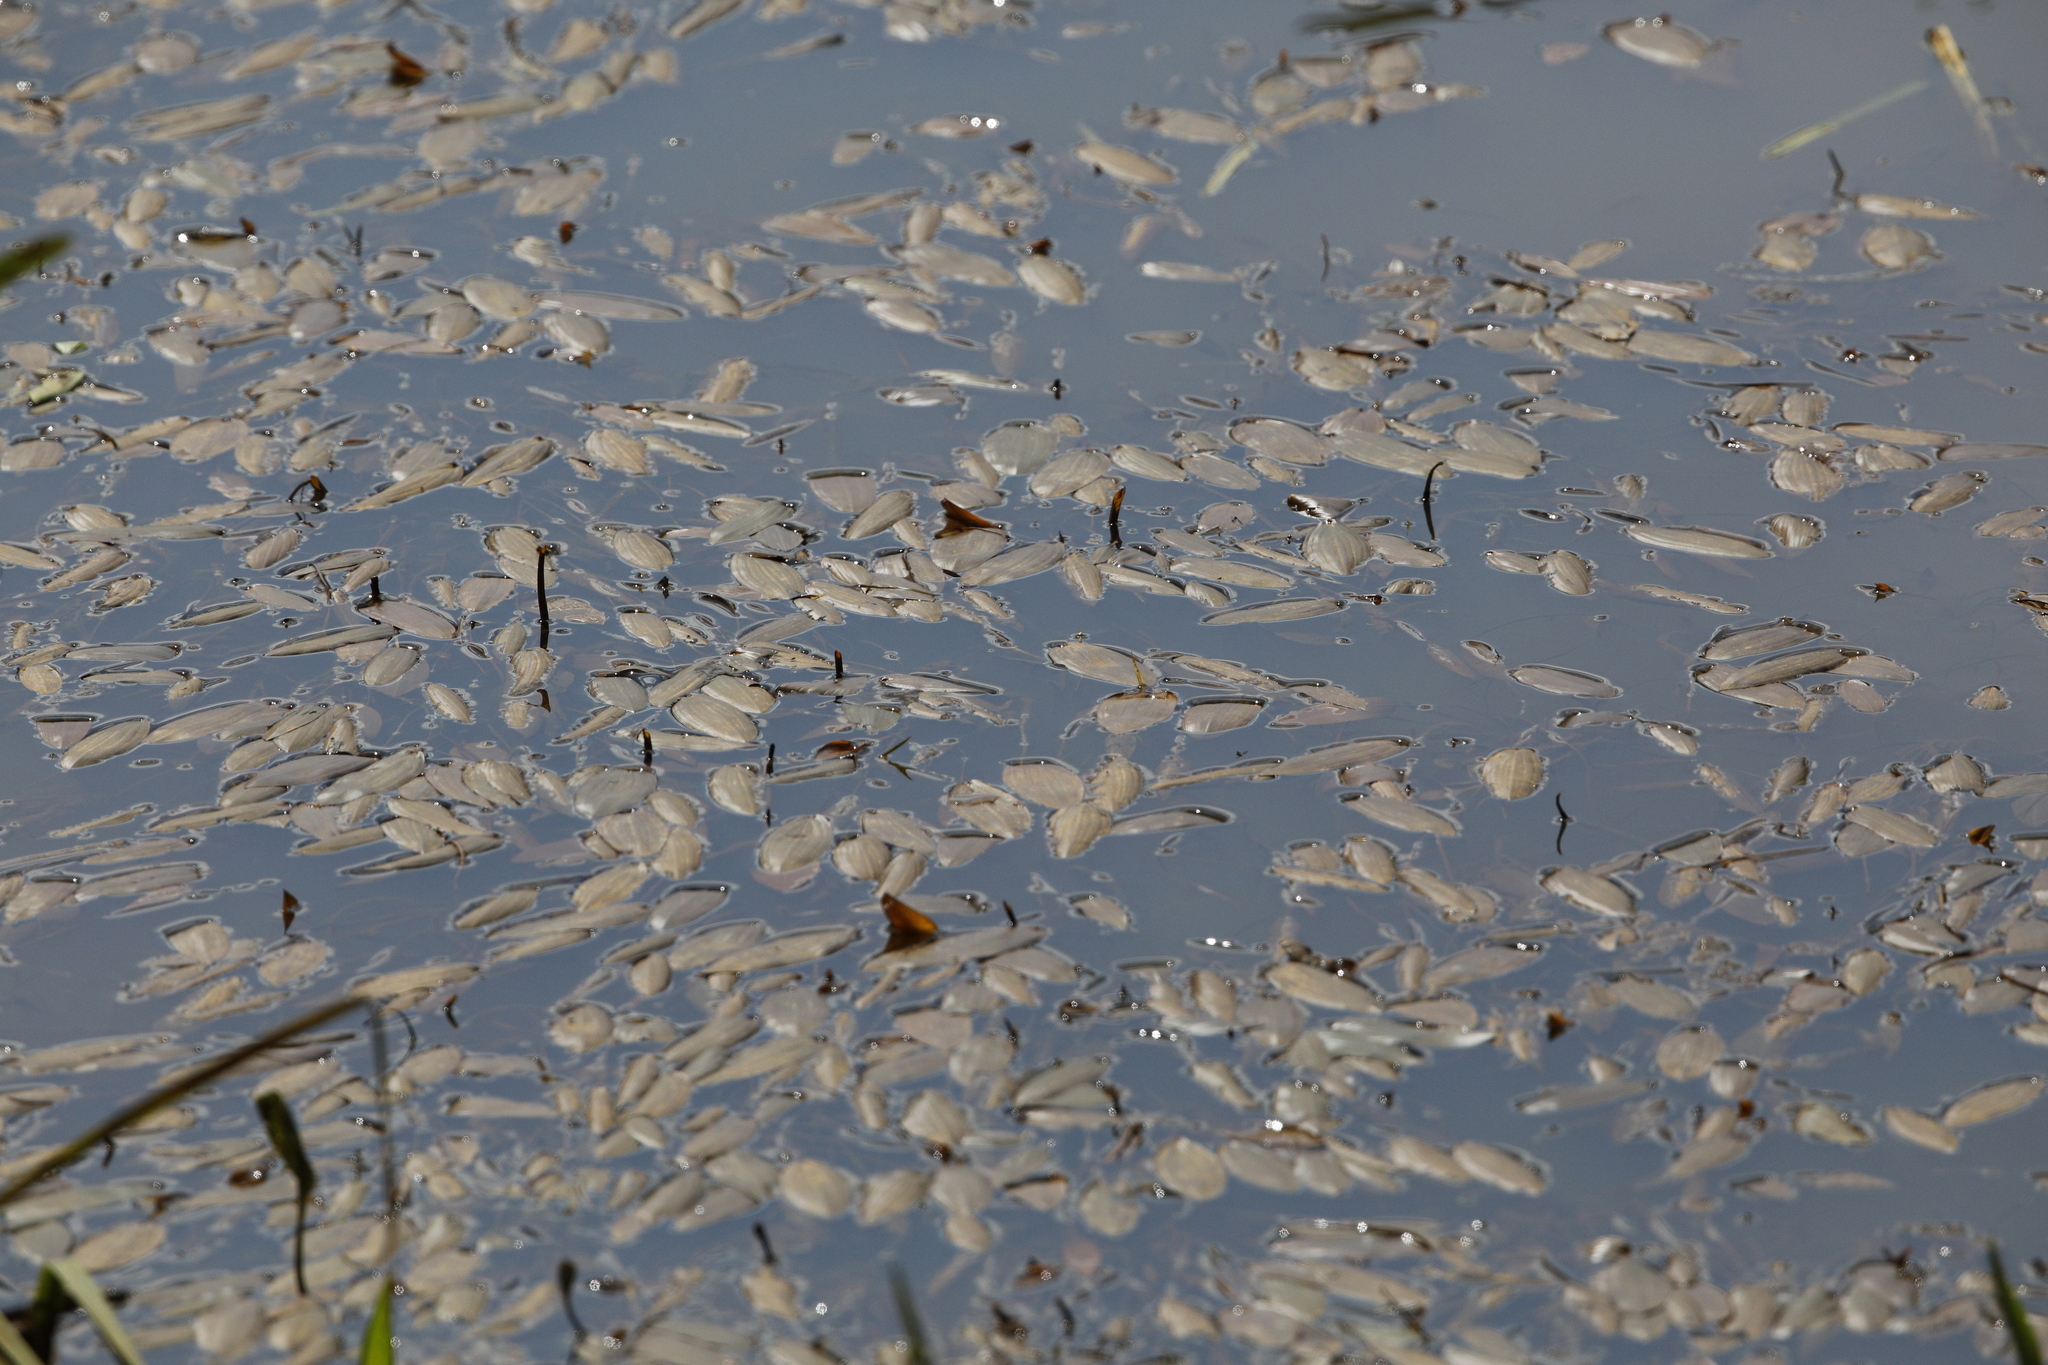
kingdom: Plantae
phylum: Tracheophyta
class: Liliopsida
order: Alismatales
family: Potamogetonaceae
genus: Potamogeton
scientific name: Potamogeton natans
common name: Broad-leaved pondweed
